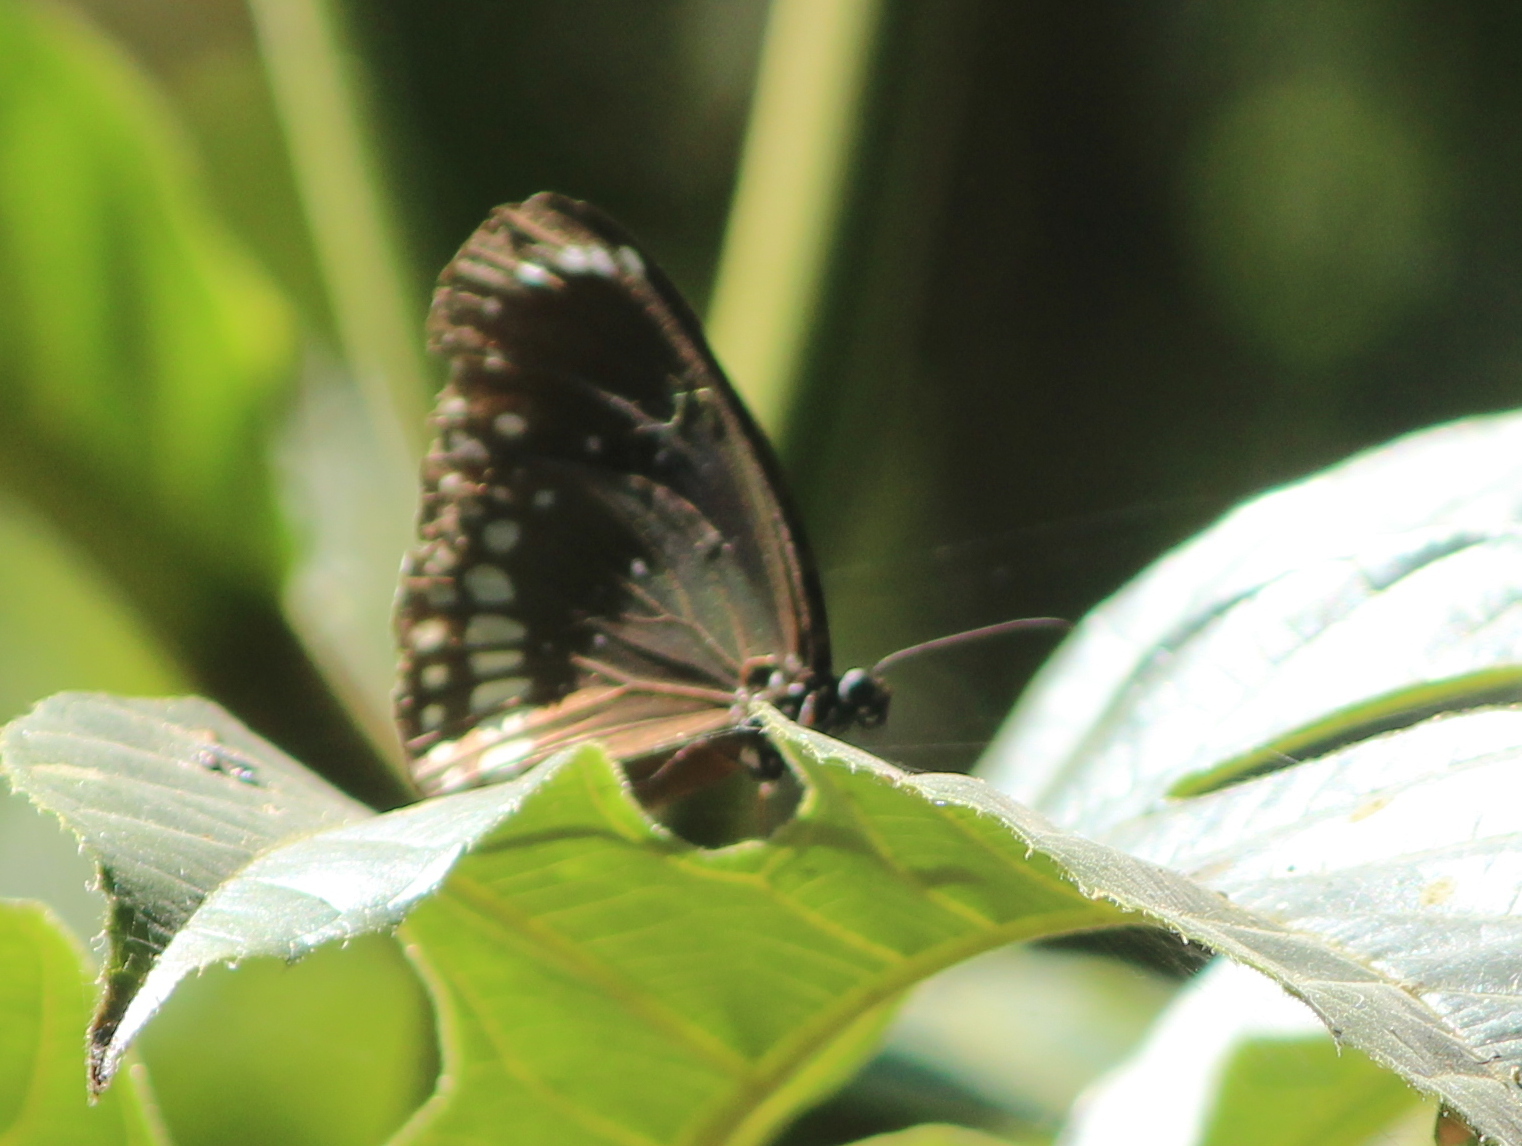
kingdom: Animalia
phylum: Arthropoda
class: Insecta
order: Lepidoptera
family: Nymphalidae
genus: Euploea
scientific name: Euploea core
